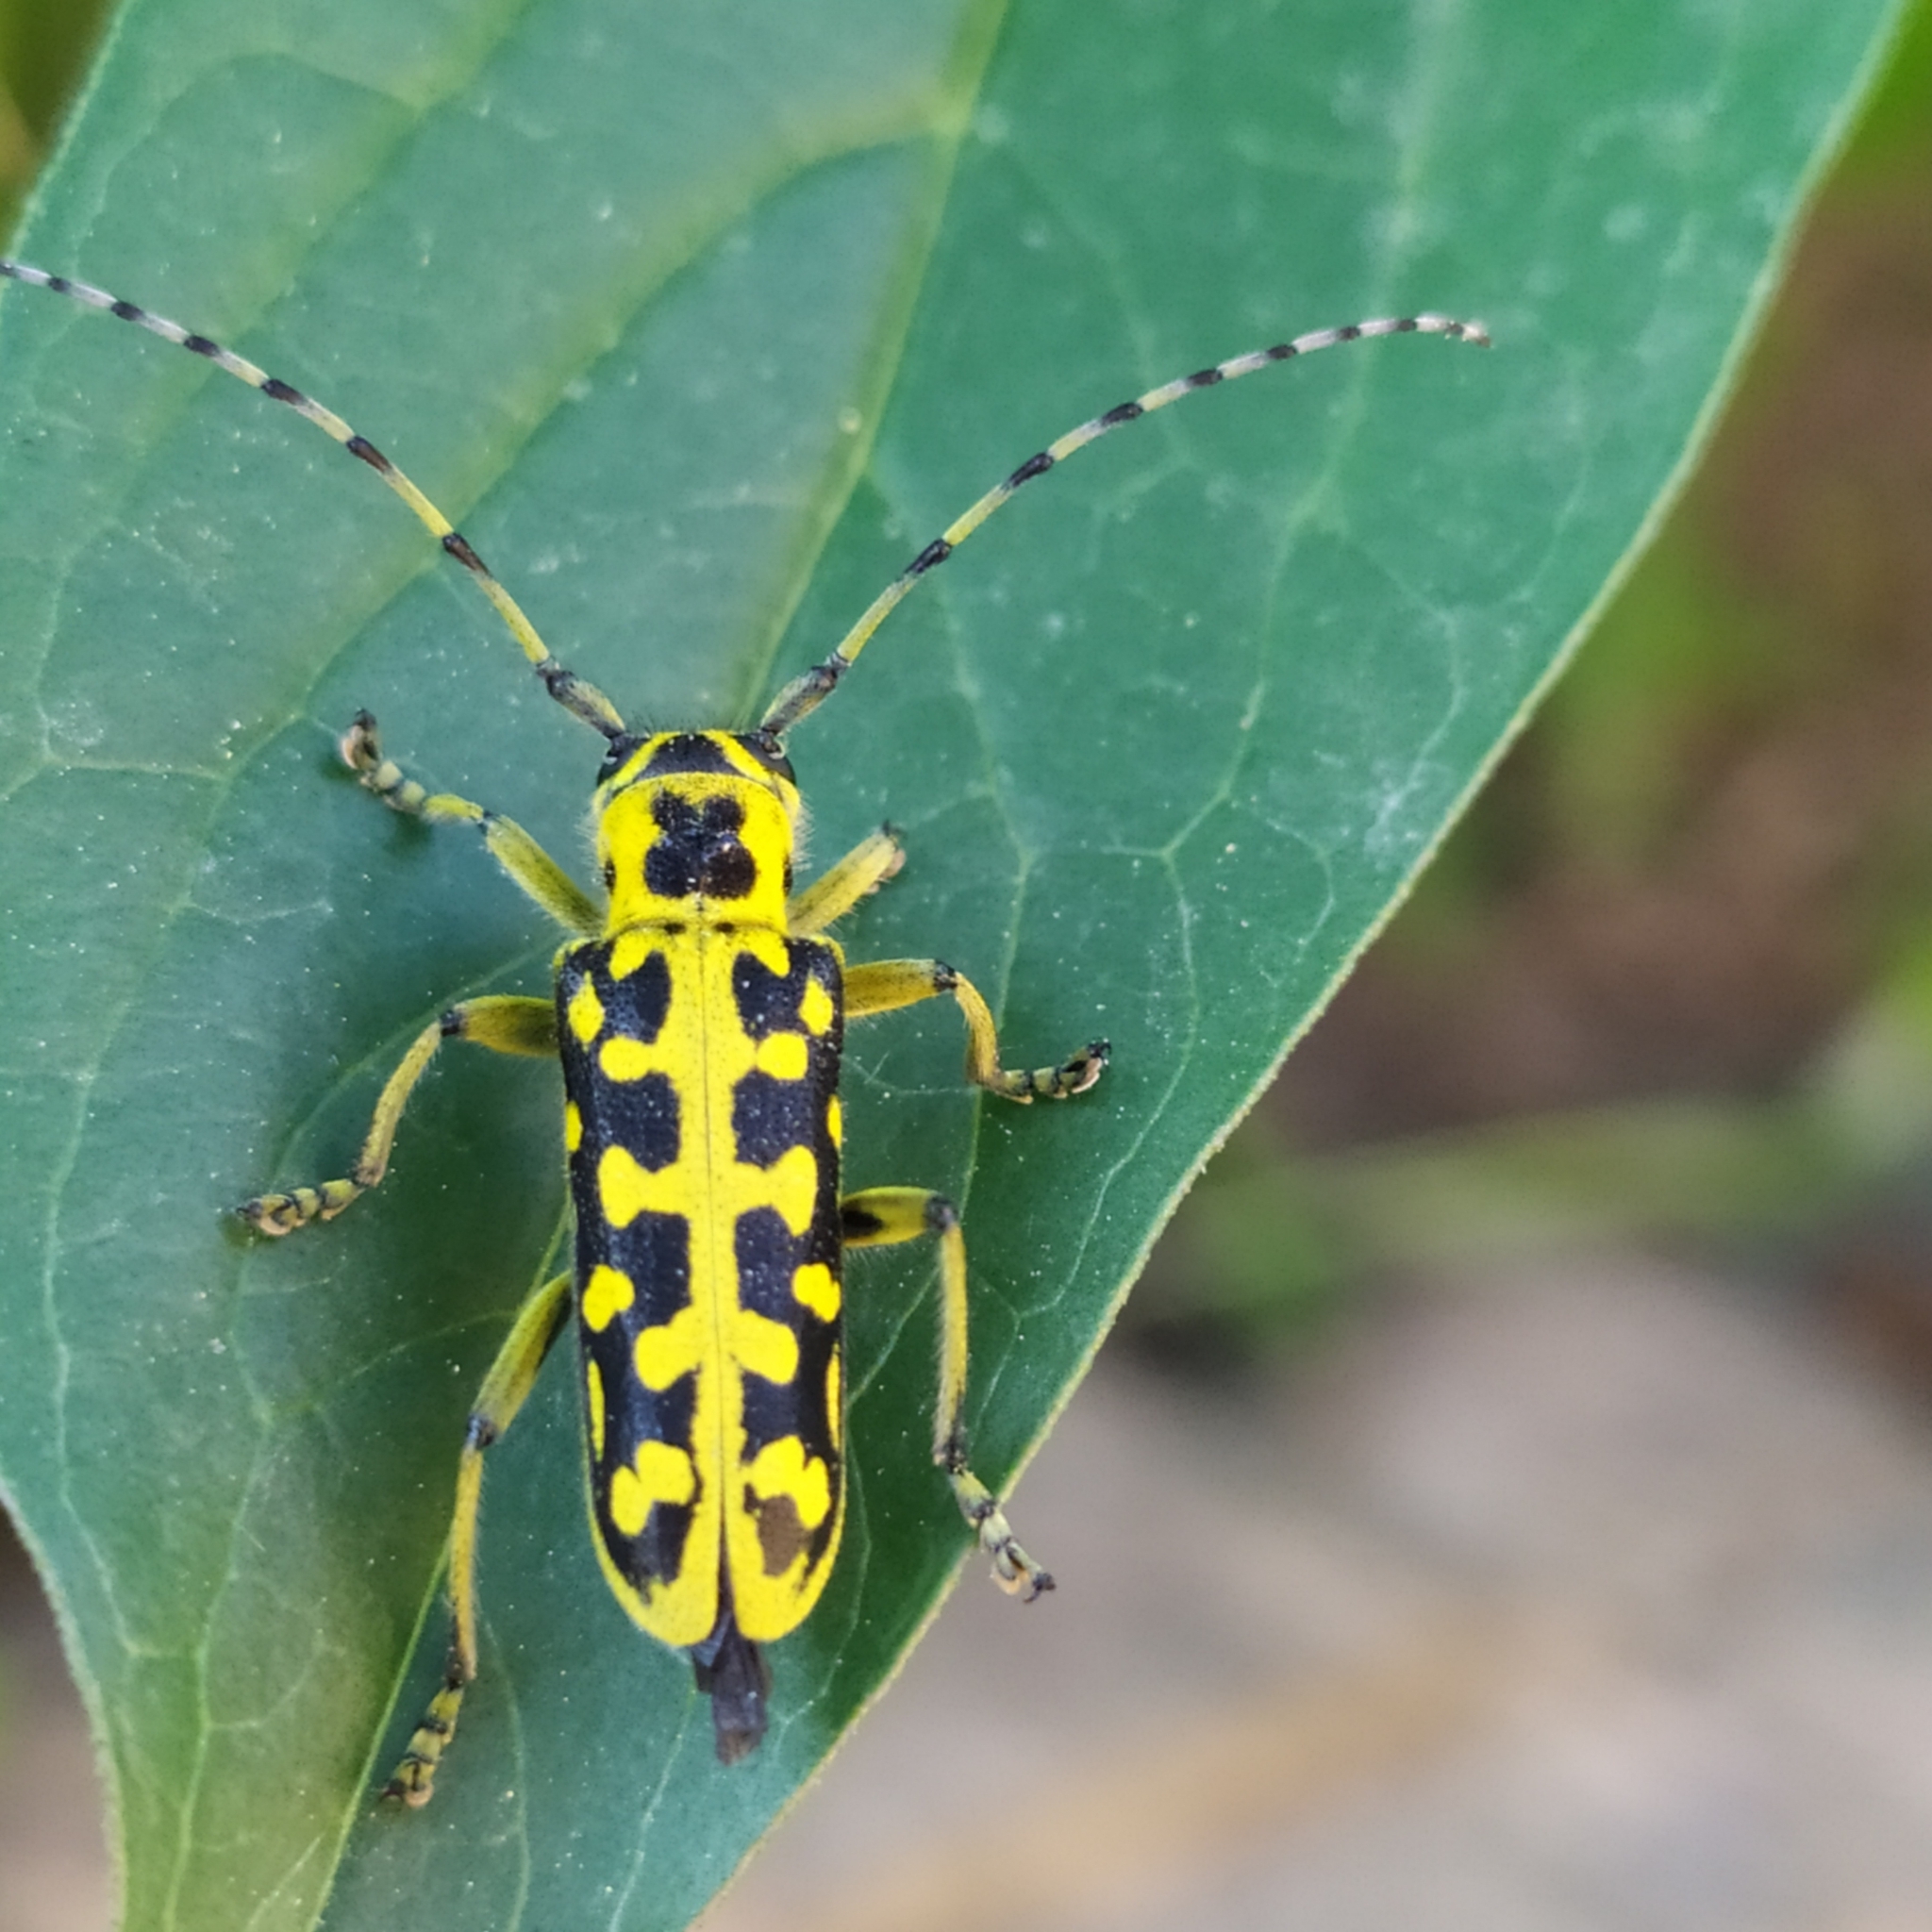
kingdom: Animalia
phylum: Arthropoda
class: Insecta
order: Coleoptera
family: Cerambycidae
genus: Saperda
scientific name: Saperda scalaris
